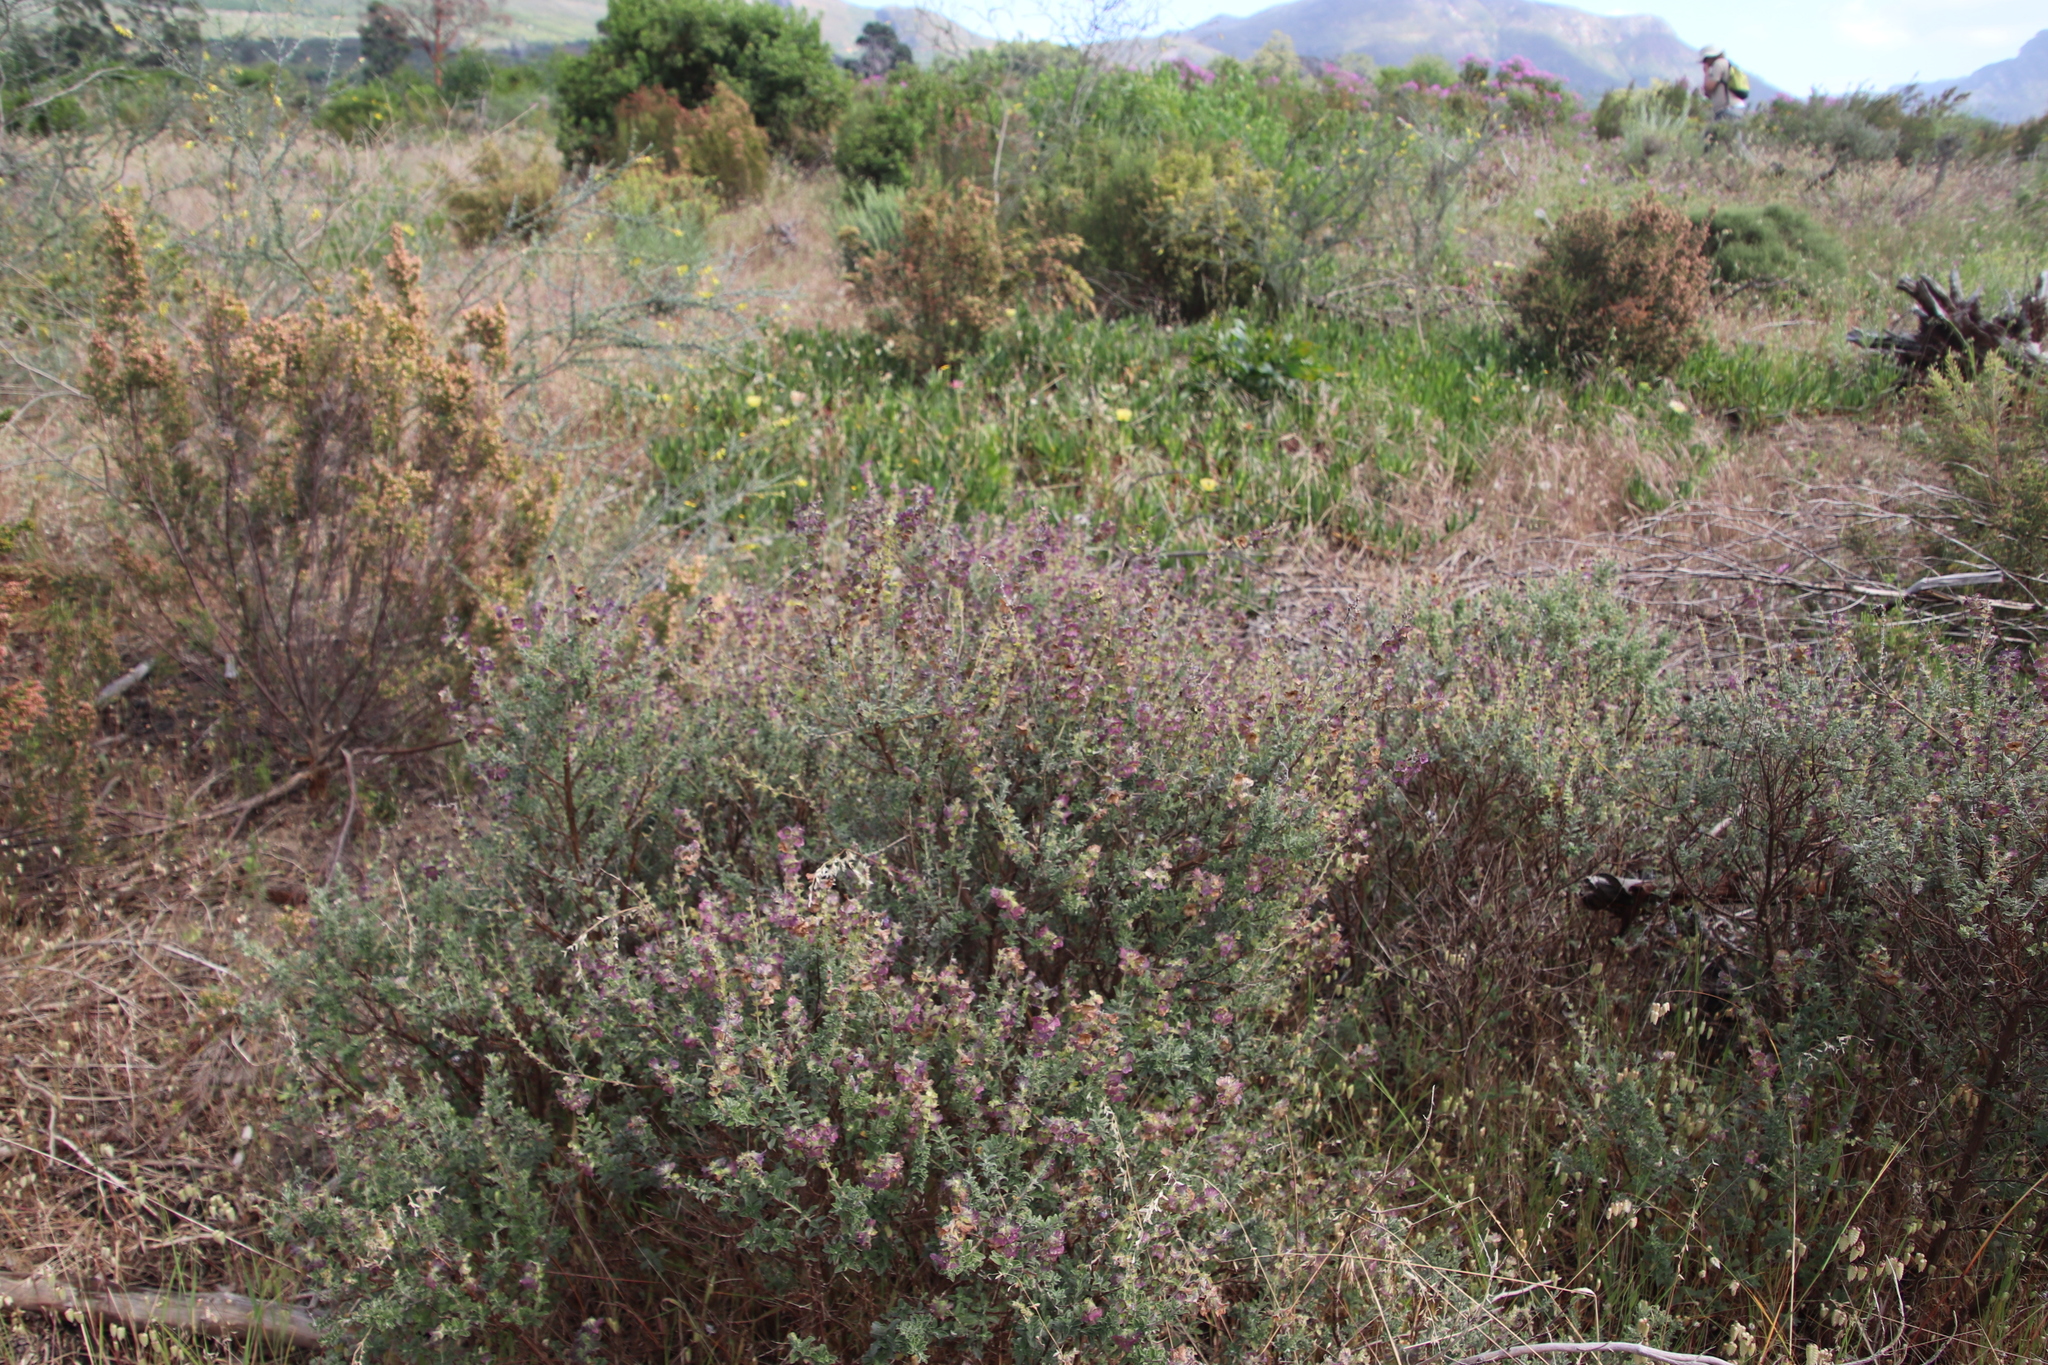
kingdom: Plantae
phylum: Tracheophyta
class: Magnoliopsida
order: Lamiales
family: Lamiaceae
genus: Salvia
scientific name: Salvia africana
